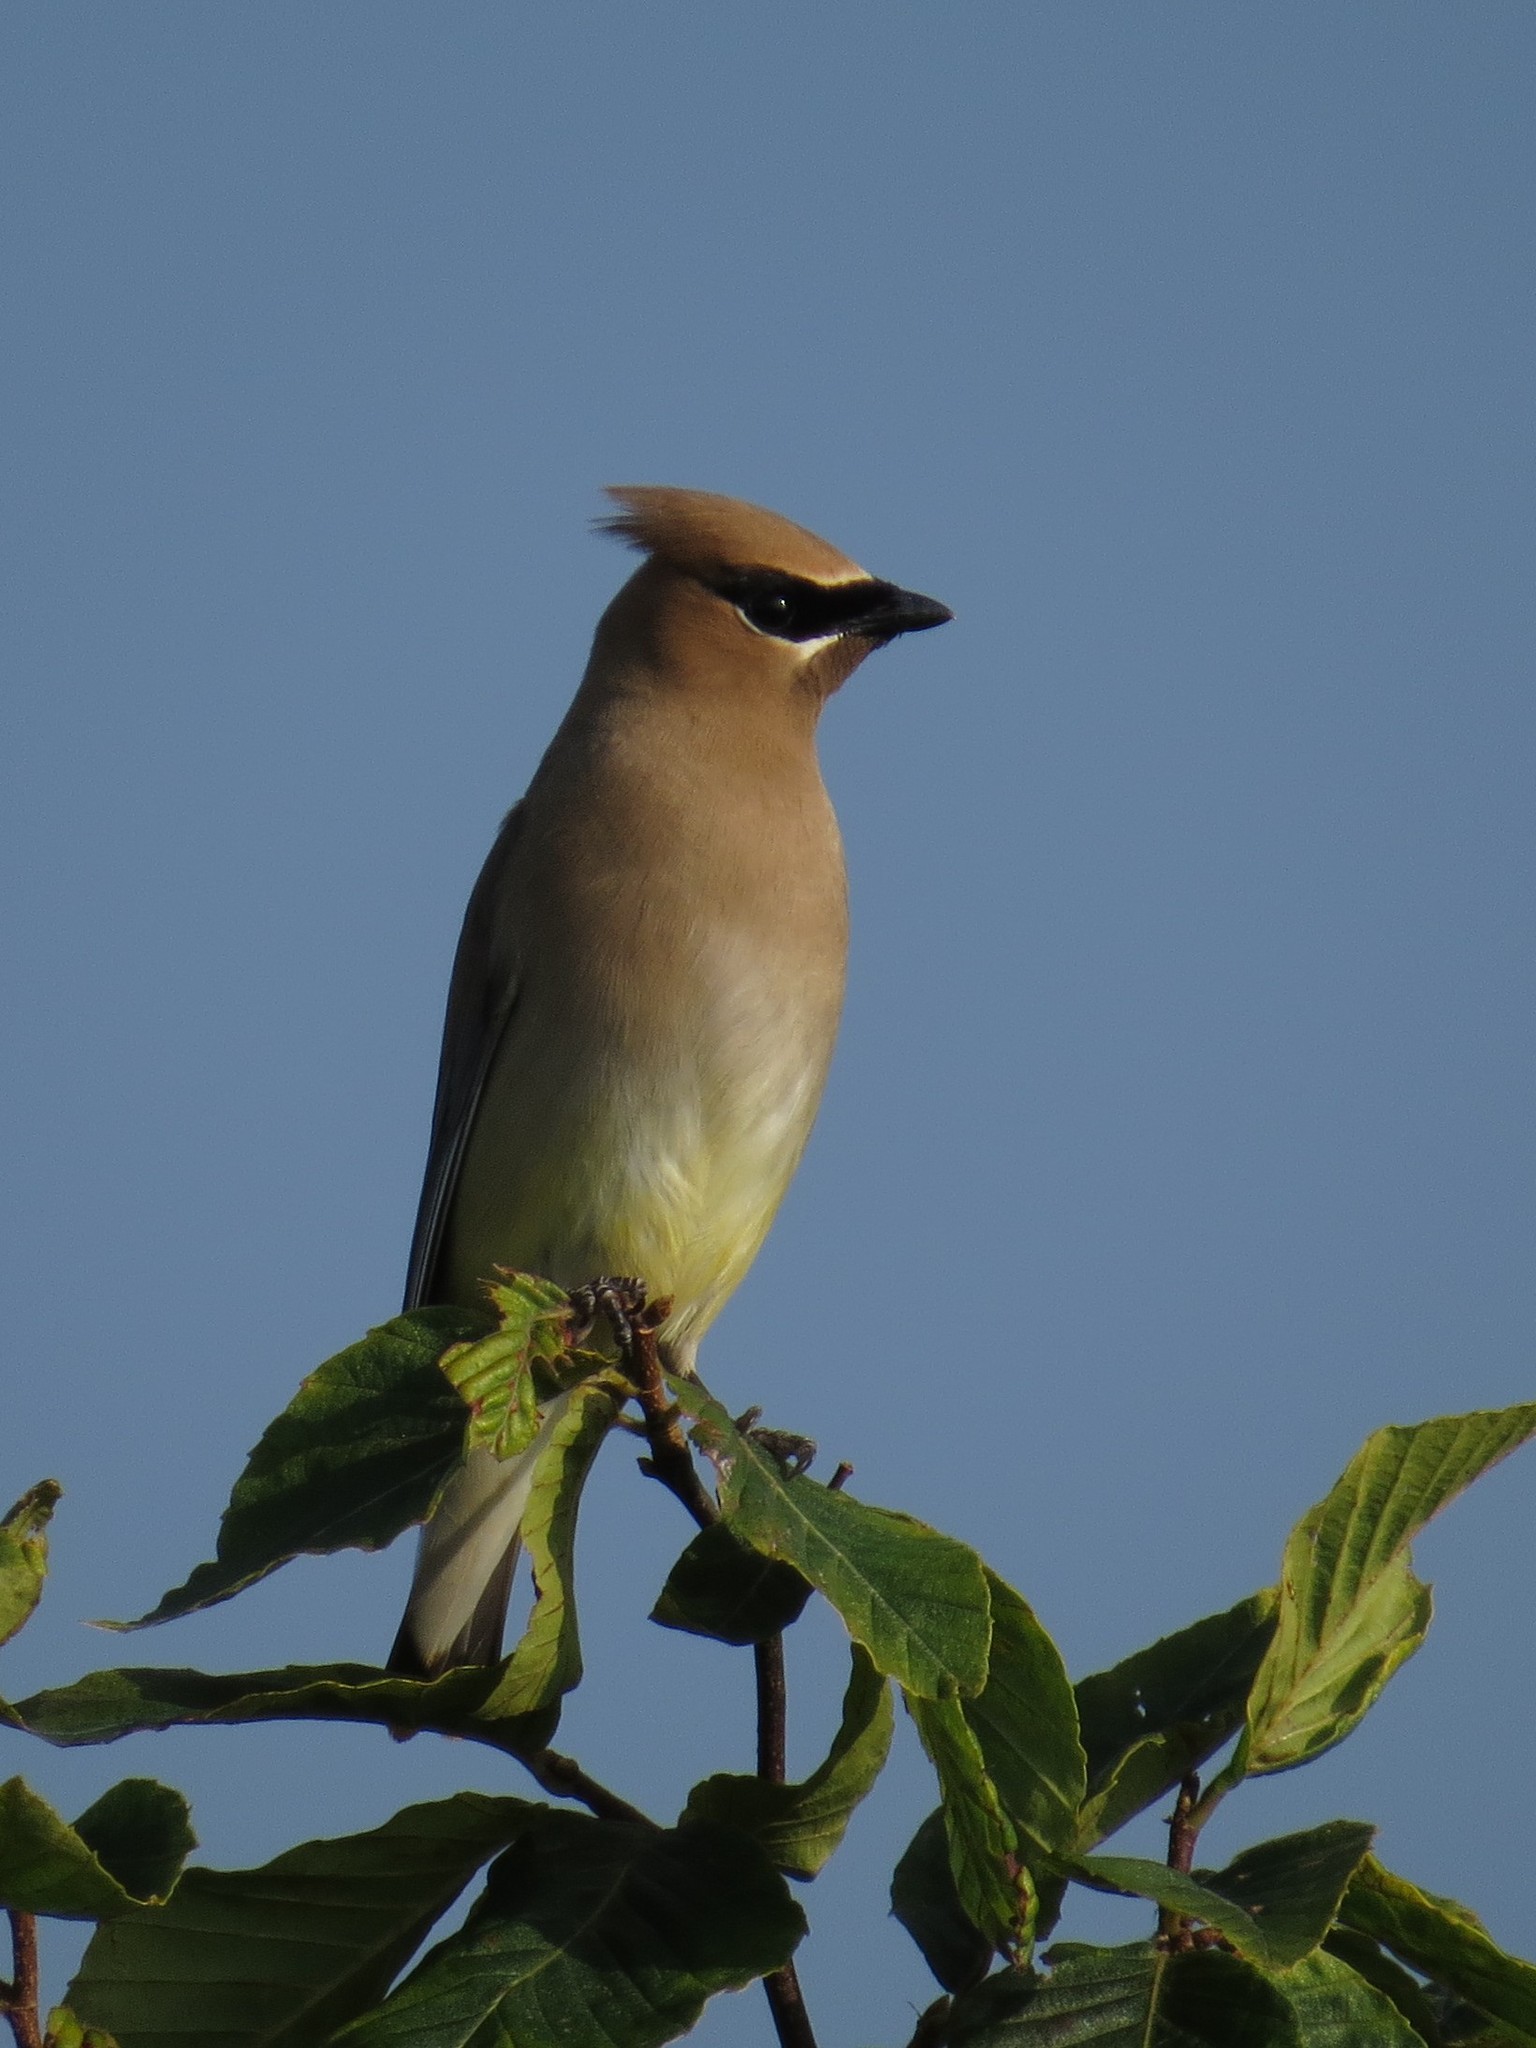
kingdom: Animalia
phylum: Chordata
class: Aves
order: Passeriformes
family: Bombycillidae
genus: Bombycilla
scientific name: Bombycilla cedrorum
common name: Cedar waxwing
